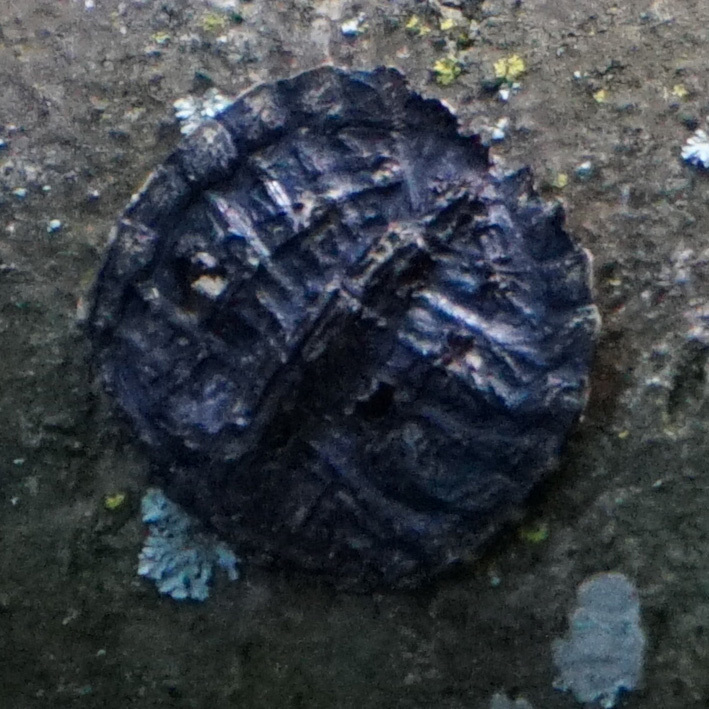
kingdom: Animalia
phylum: Chordata
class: Testudines
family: Chelydridae
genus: Chelydra
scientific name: Chelydra serpentina
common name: Common snapping turtle
